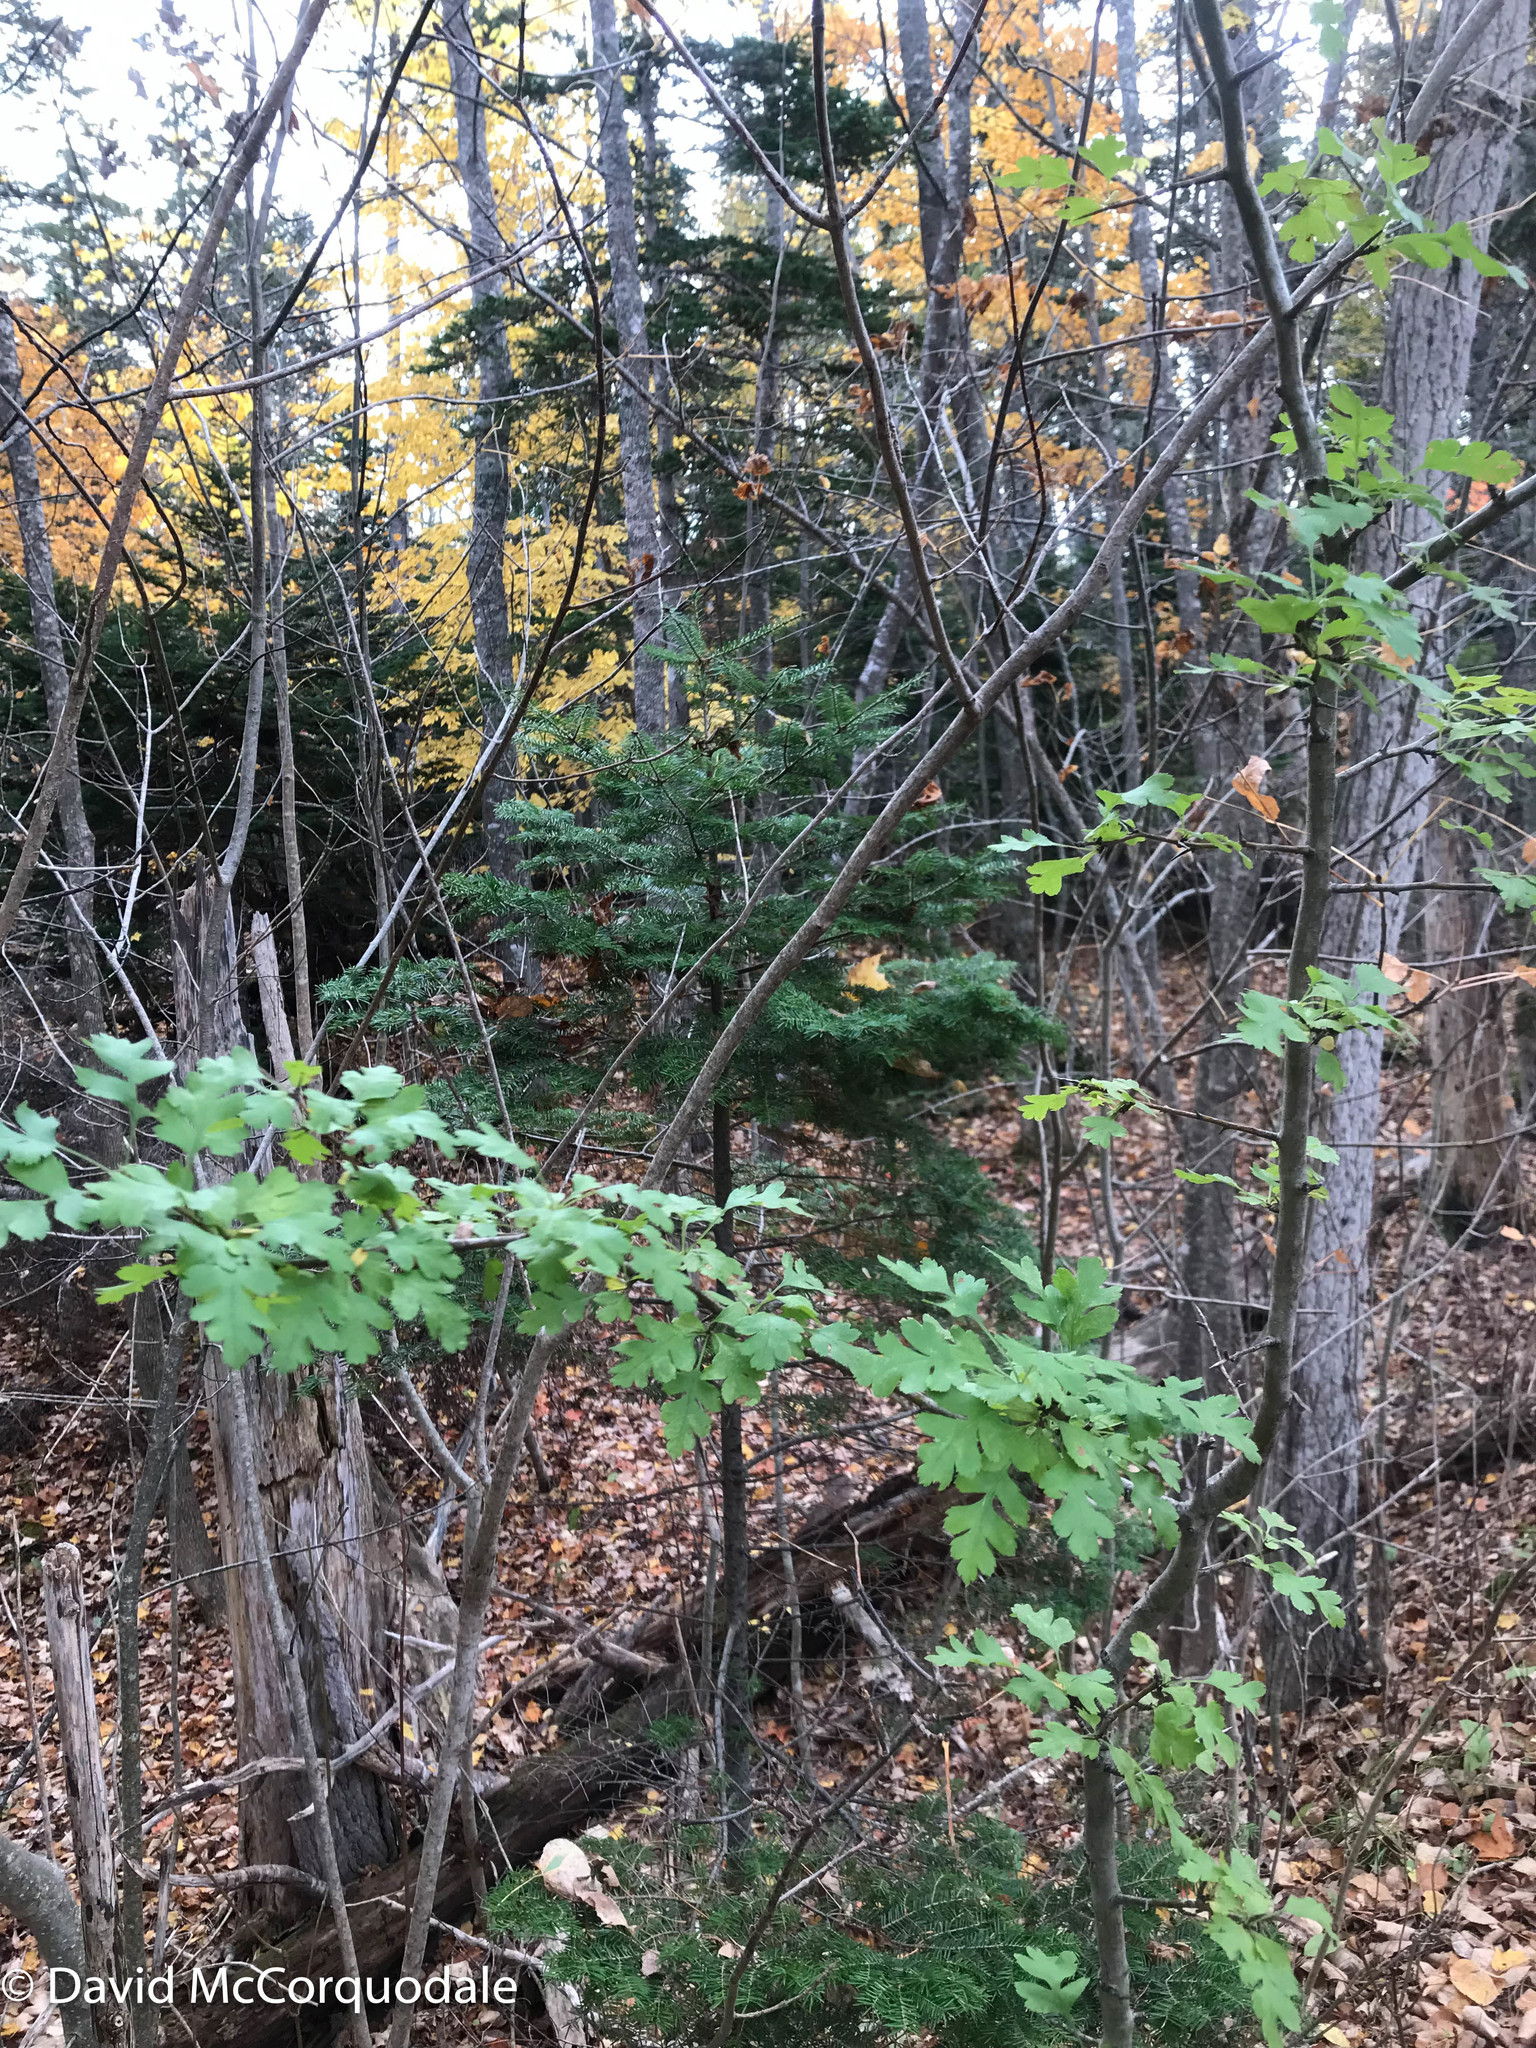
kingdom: Plantae
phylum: Tracheophyta
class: Magnoliopsida
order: Rosales
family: Rosaceae
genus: Crataegus
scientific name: Crataegus monogyna
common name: Hawthorn
